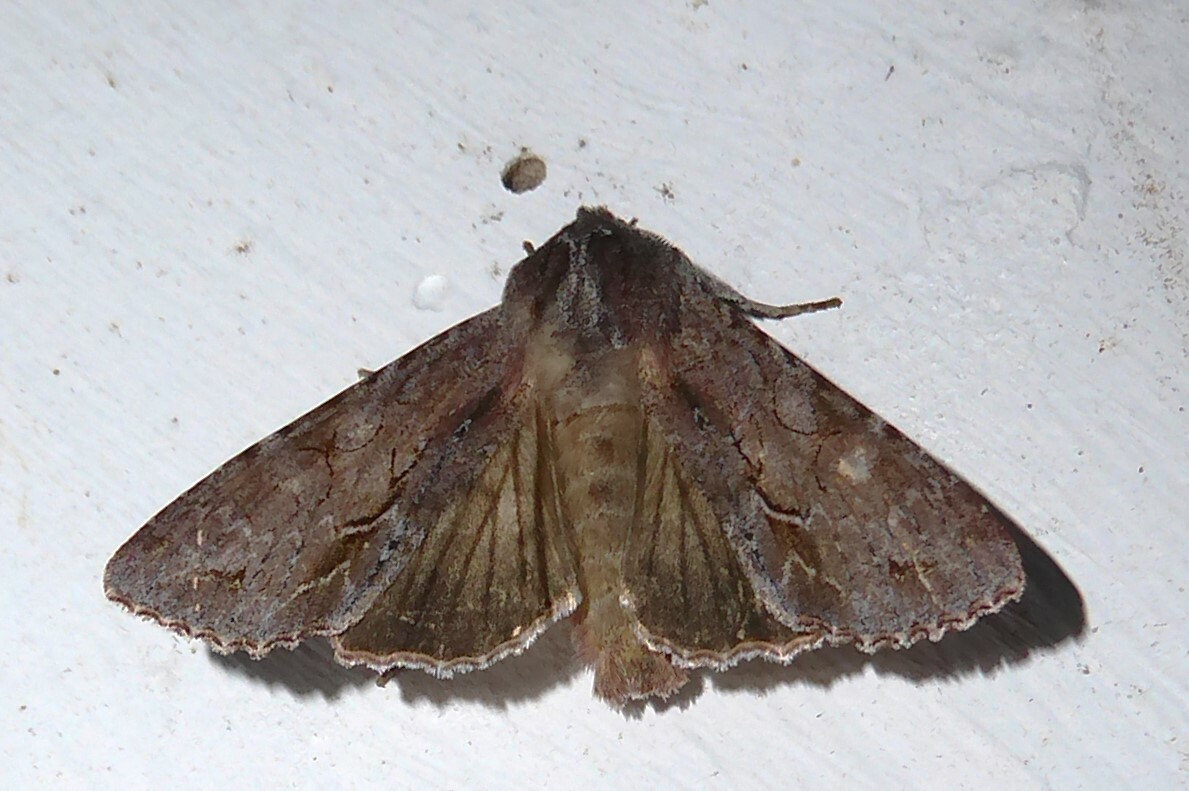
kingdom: Animalia
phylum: Arthropoda
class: Insecta
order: Lepidoptera
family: Noctuidae
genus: Ichneutica
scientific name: Ichneutica
